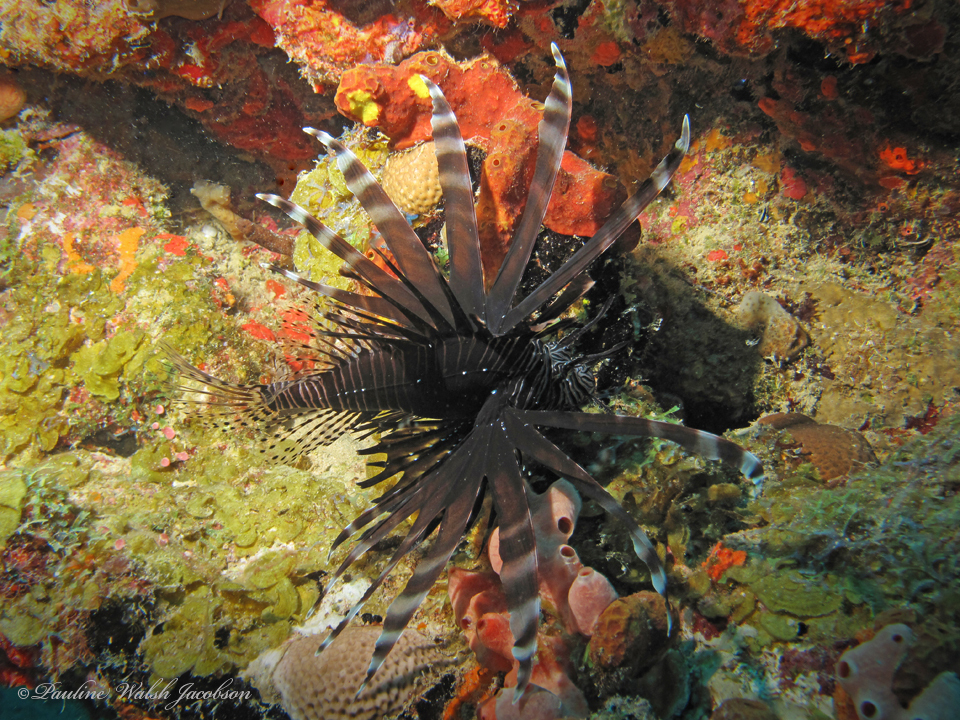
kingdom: Animalia
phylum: Chordata
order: Scorpaeniformes
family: Scorpaenidae
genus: Pterois
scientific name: Pterois volitans
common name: Lionfish
